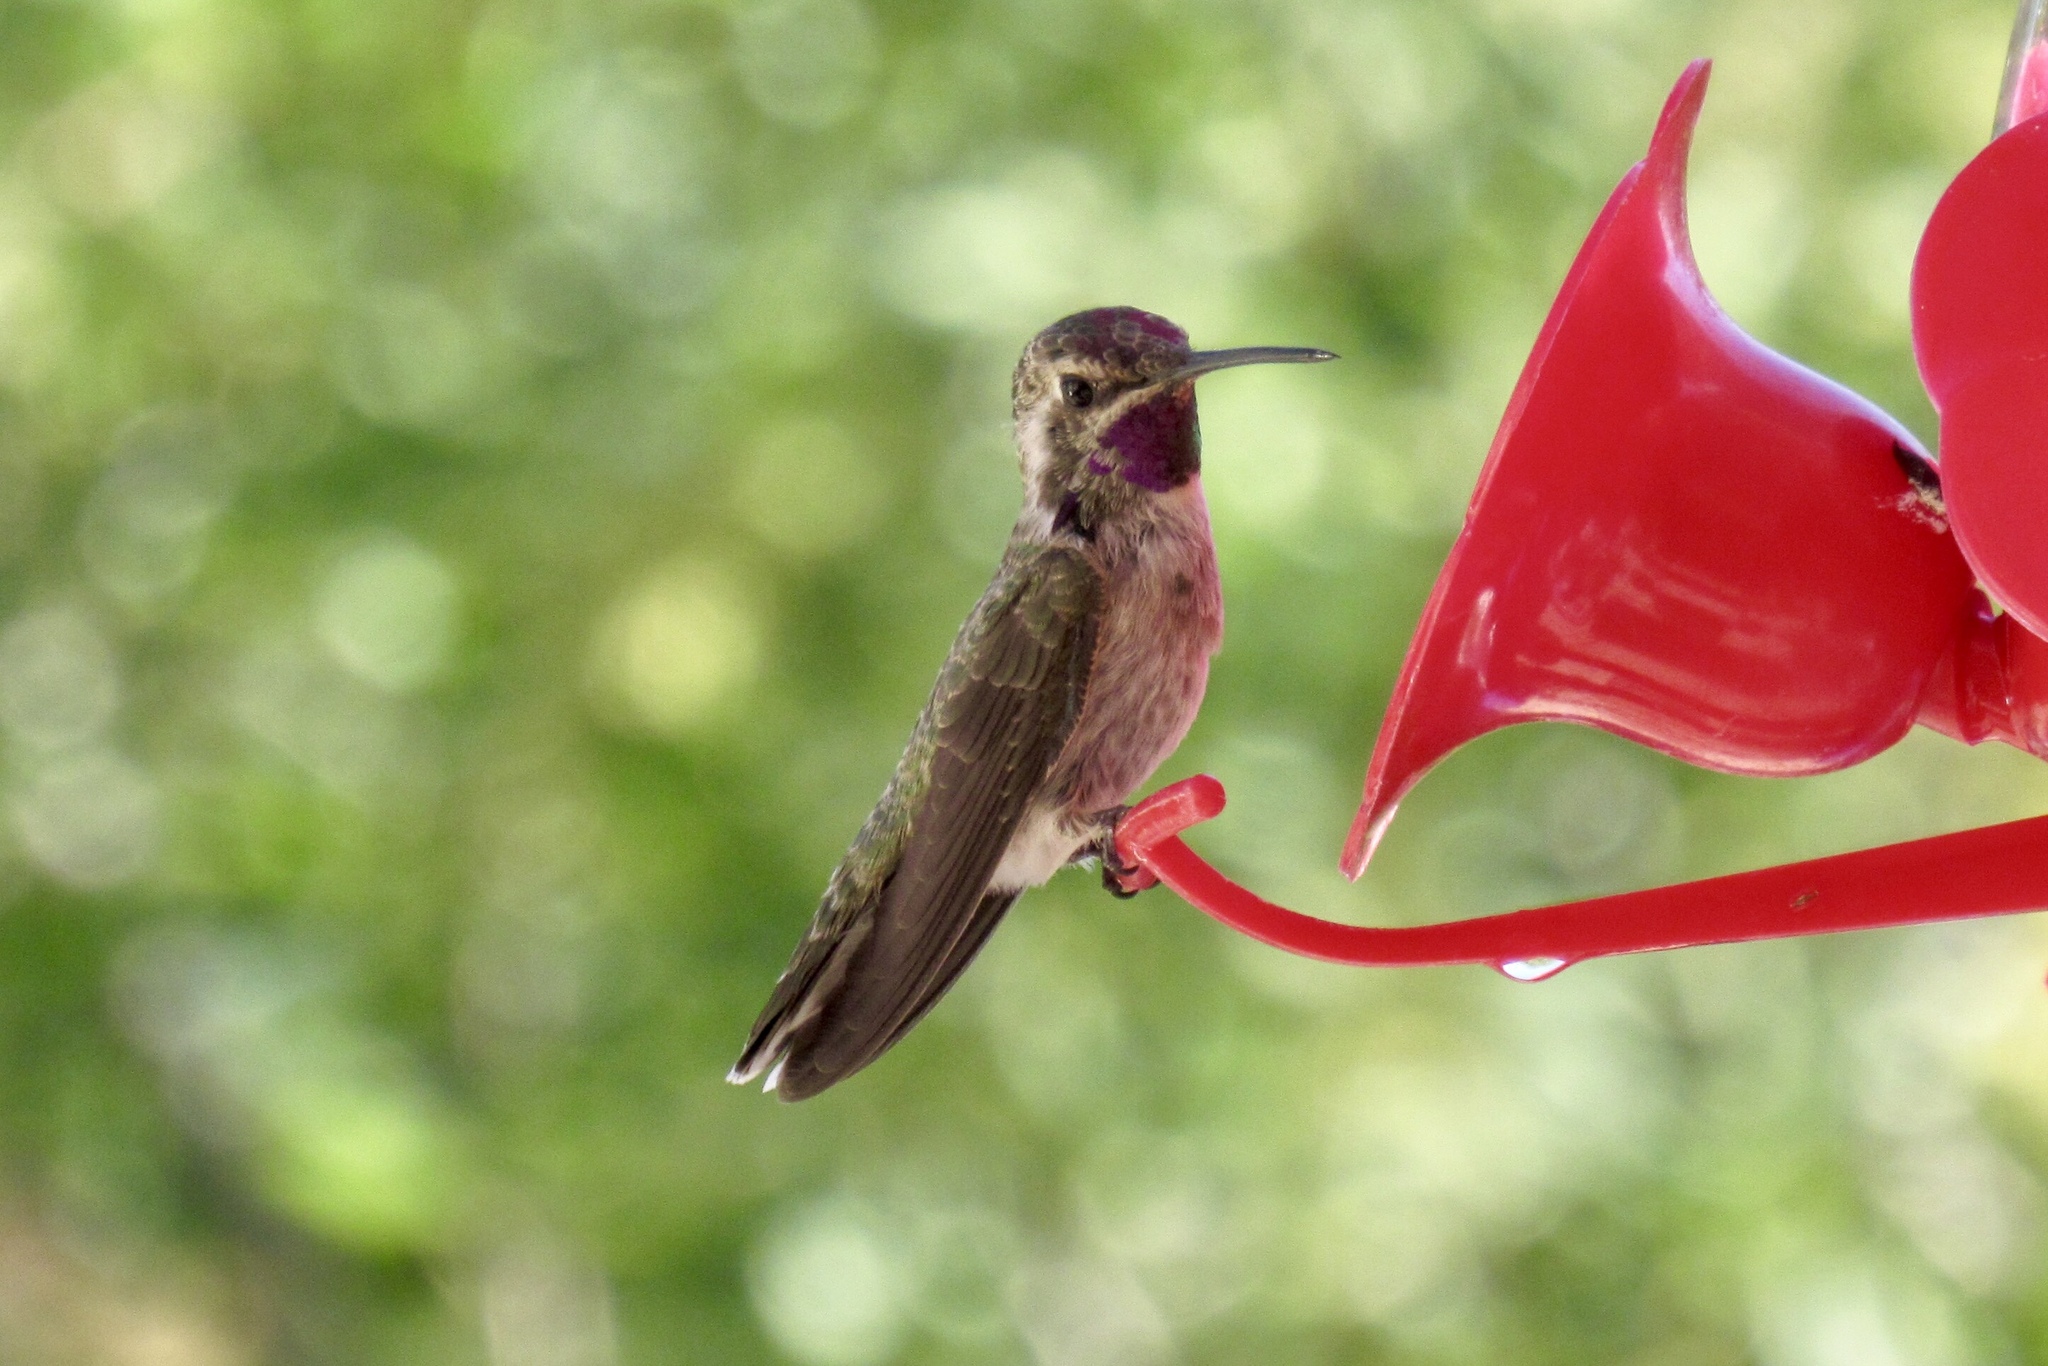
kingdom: Animalia
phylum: Chordata
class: Aves
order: Apodiformes
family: Trochilidae
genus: Calypte
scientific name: Calypte costae
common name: Costa's hummingbird
